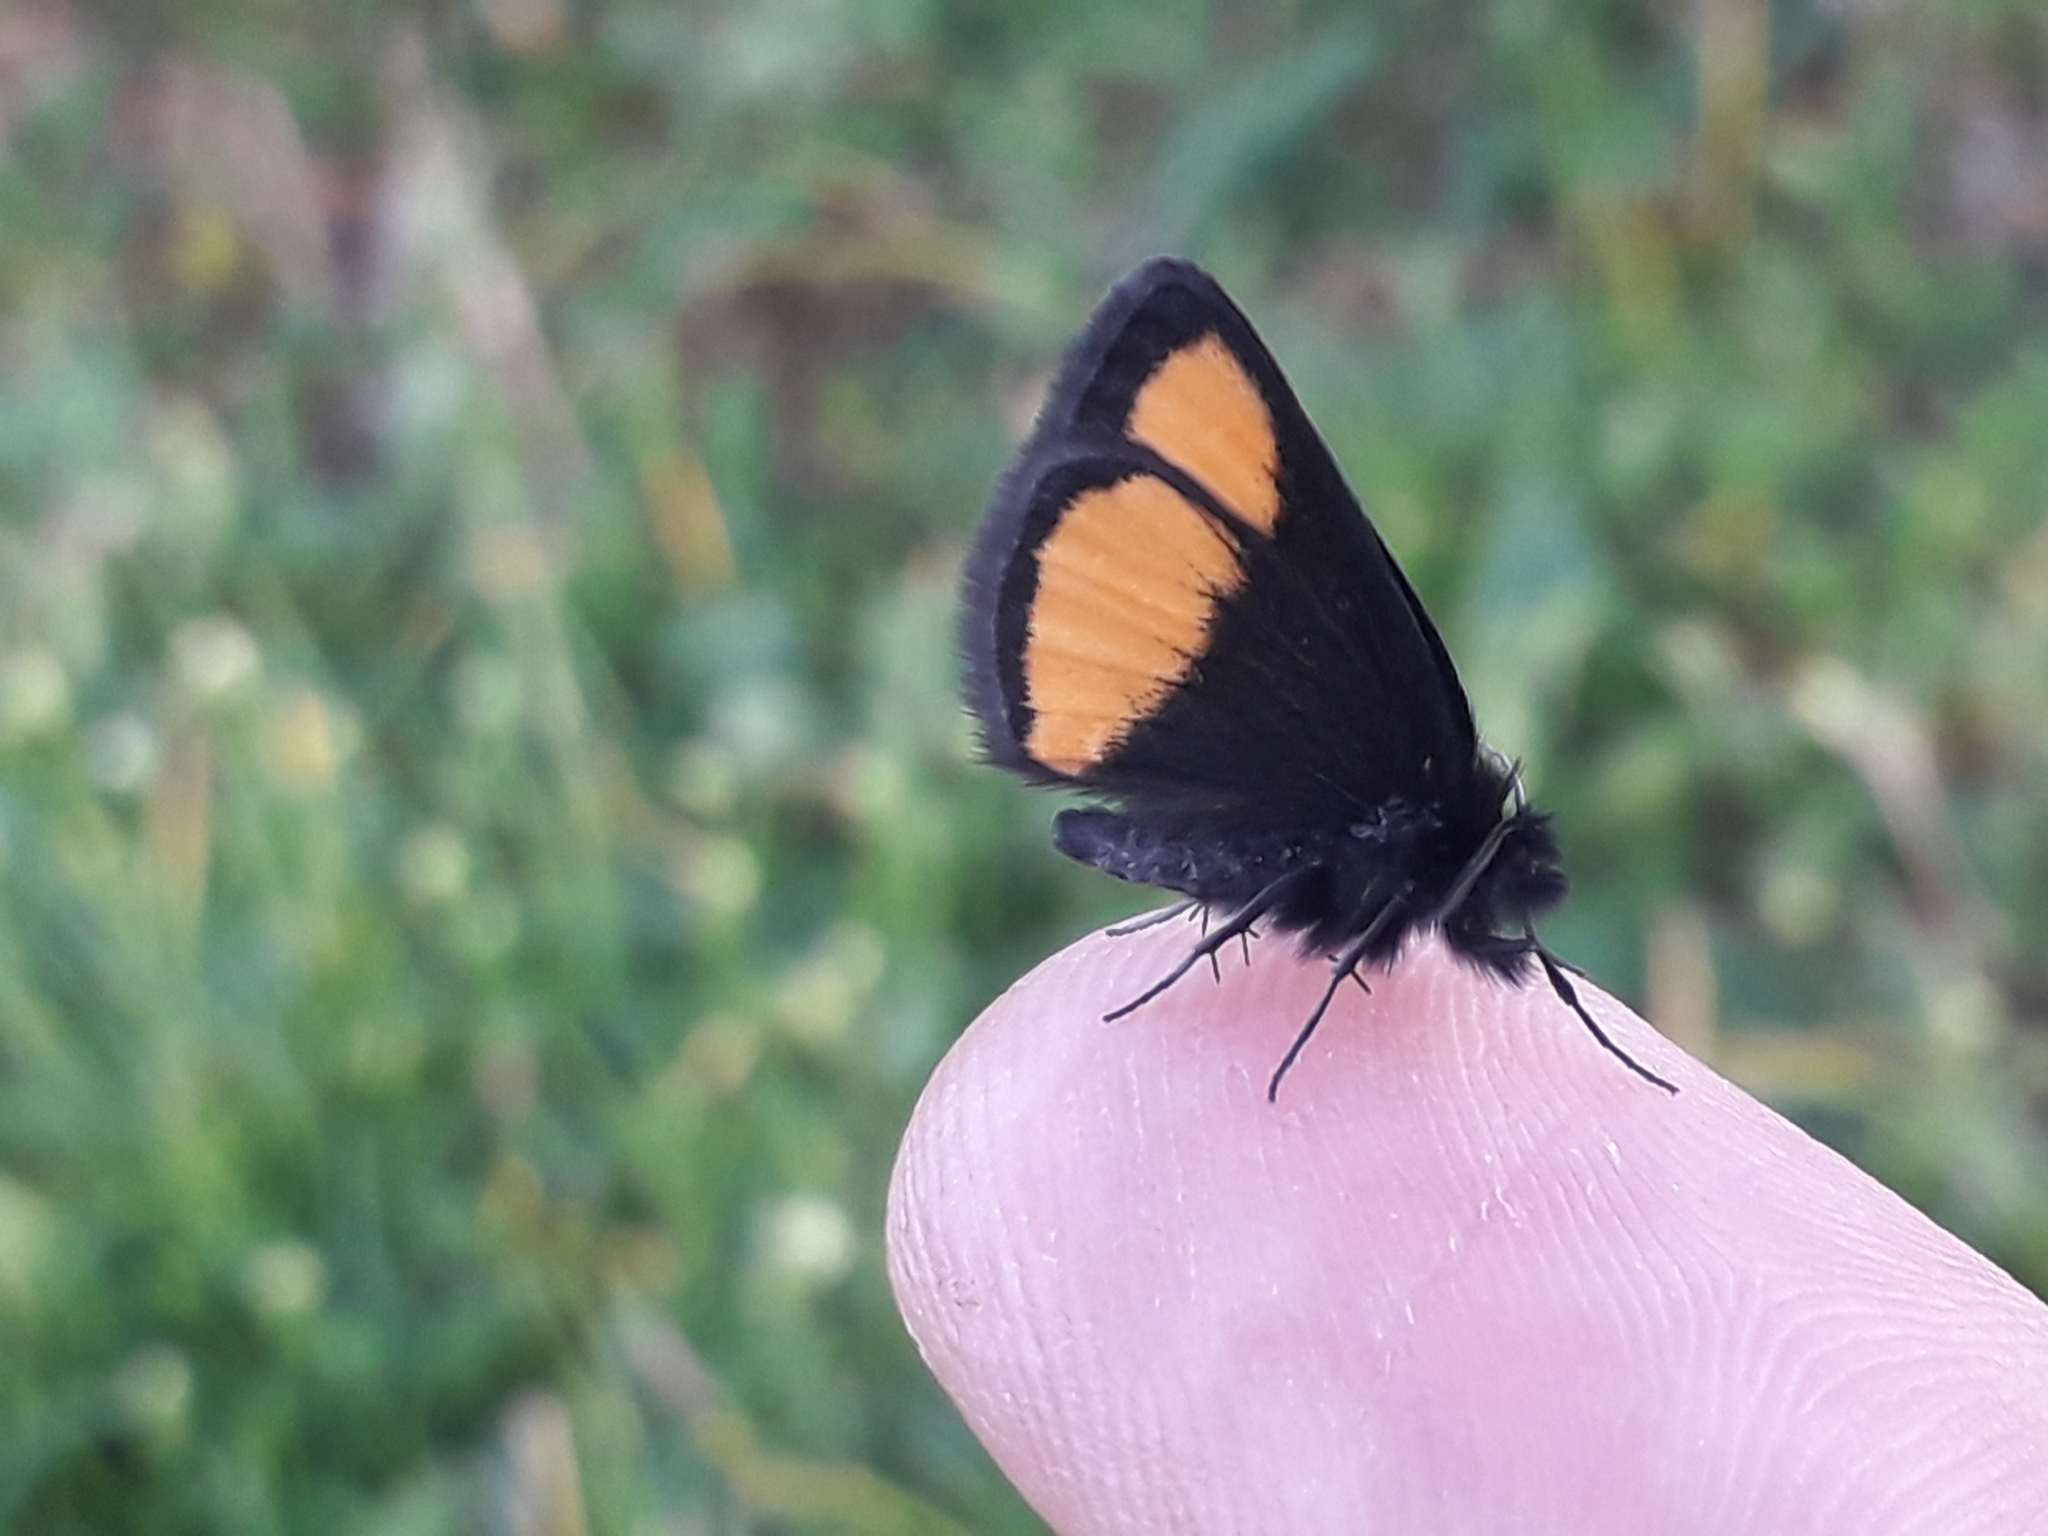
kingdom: Animalia
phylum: Arthropoda
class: Insecta
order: Lepidoptera
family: Geometridae
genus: Psodos
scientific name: Psodos quadrifaria
